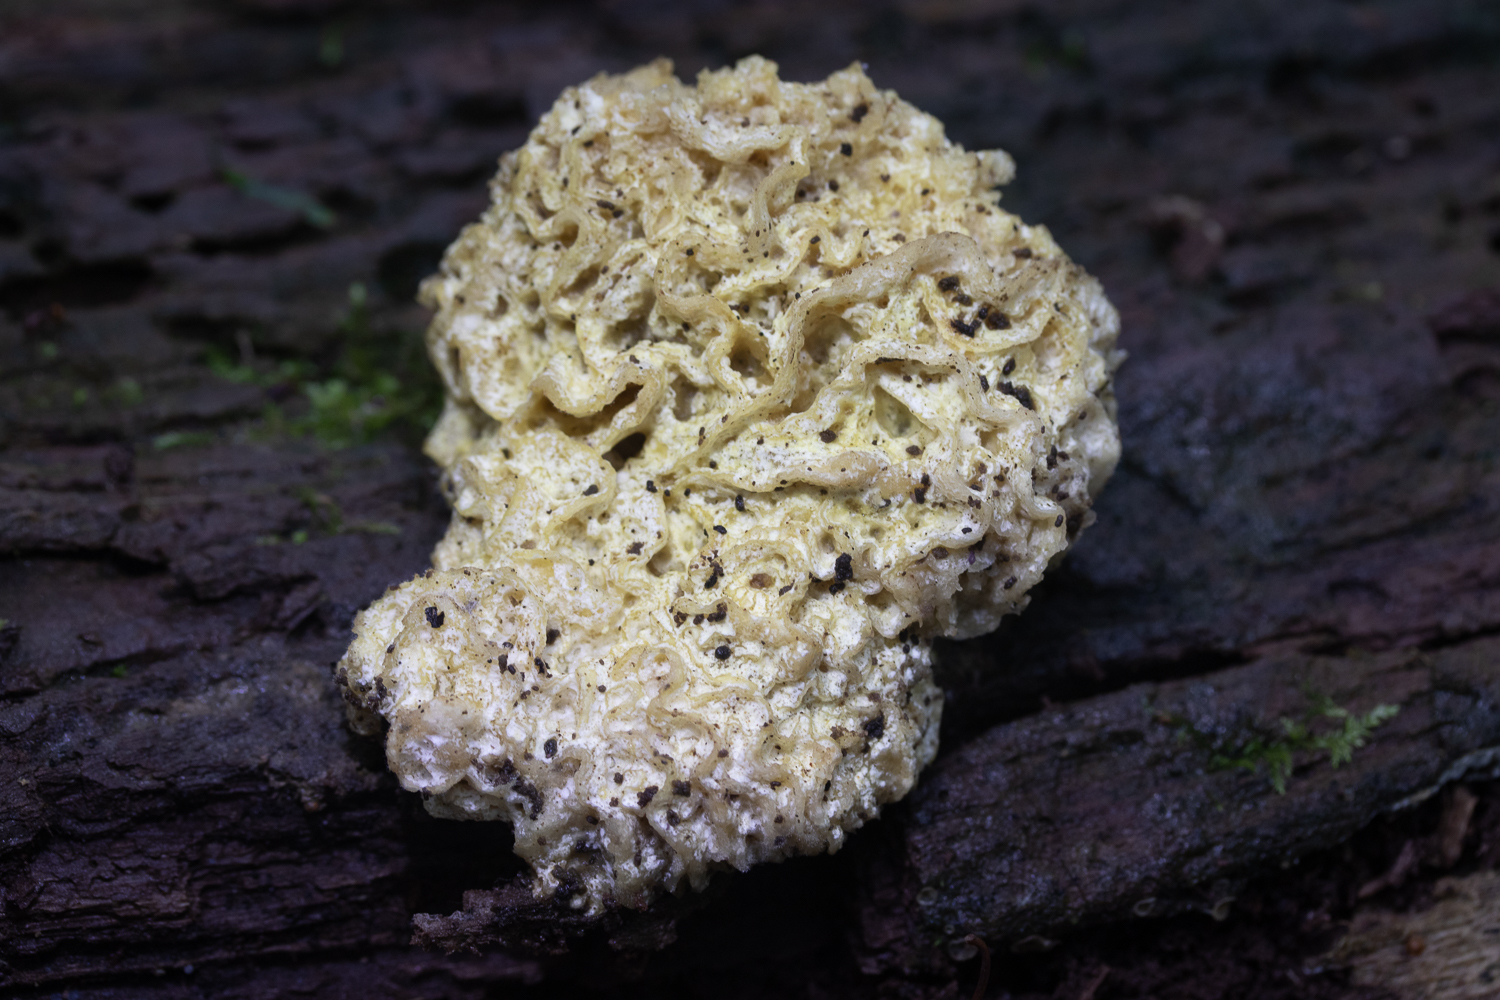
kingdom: Fungi
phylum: Ascomycota
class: Sordariomycetes
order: Hypocreales
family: Bionectriaceae
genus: Nectriopsis
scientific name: Nectriopsis tremellicola
